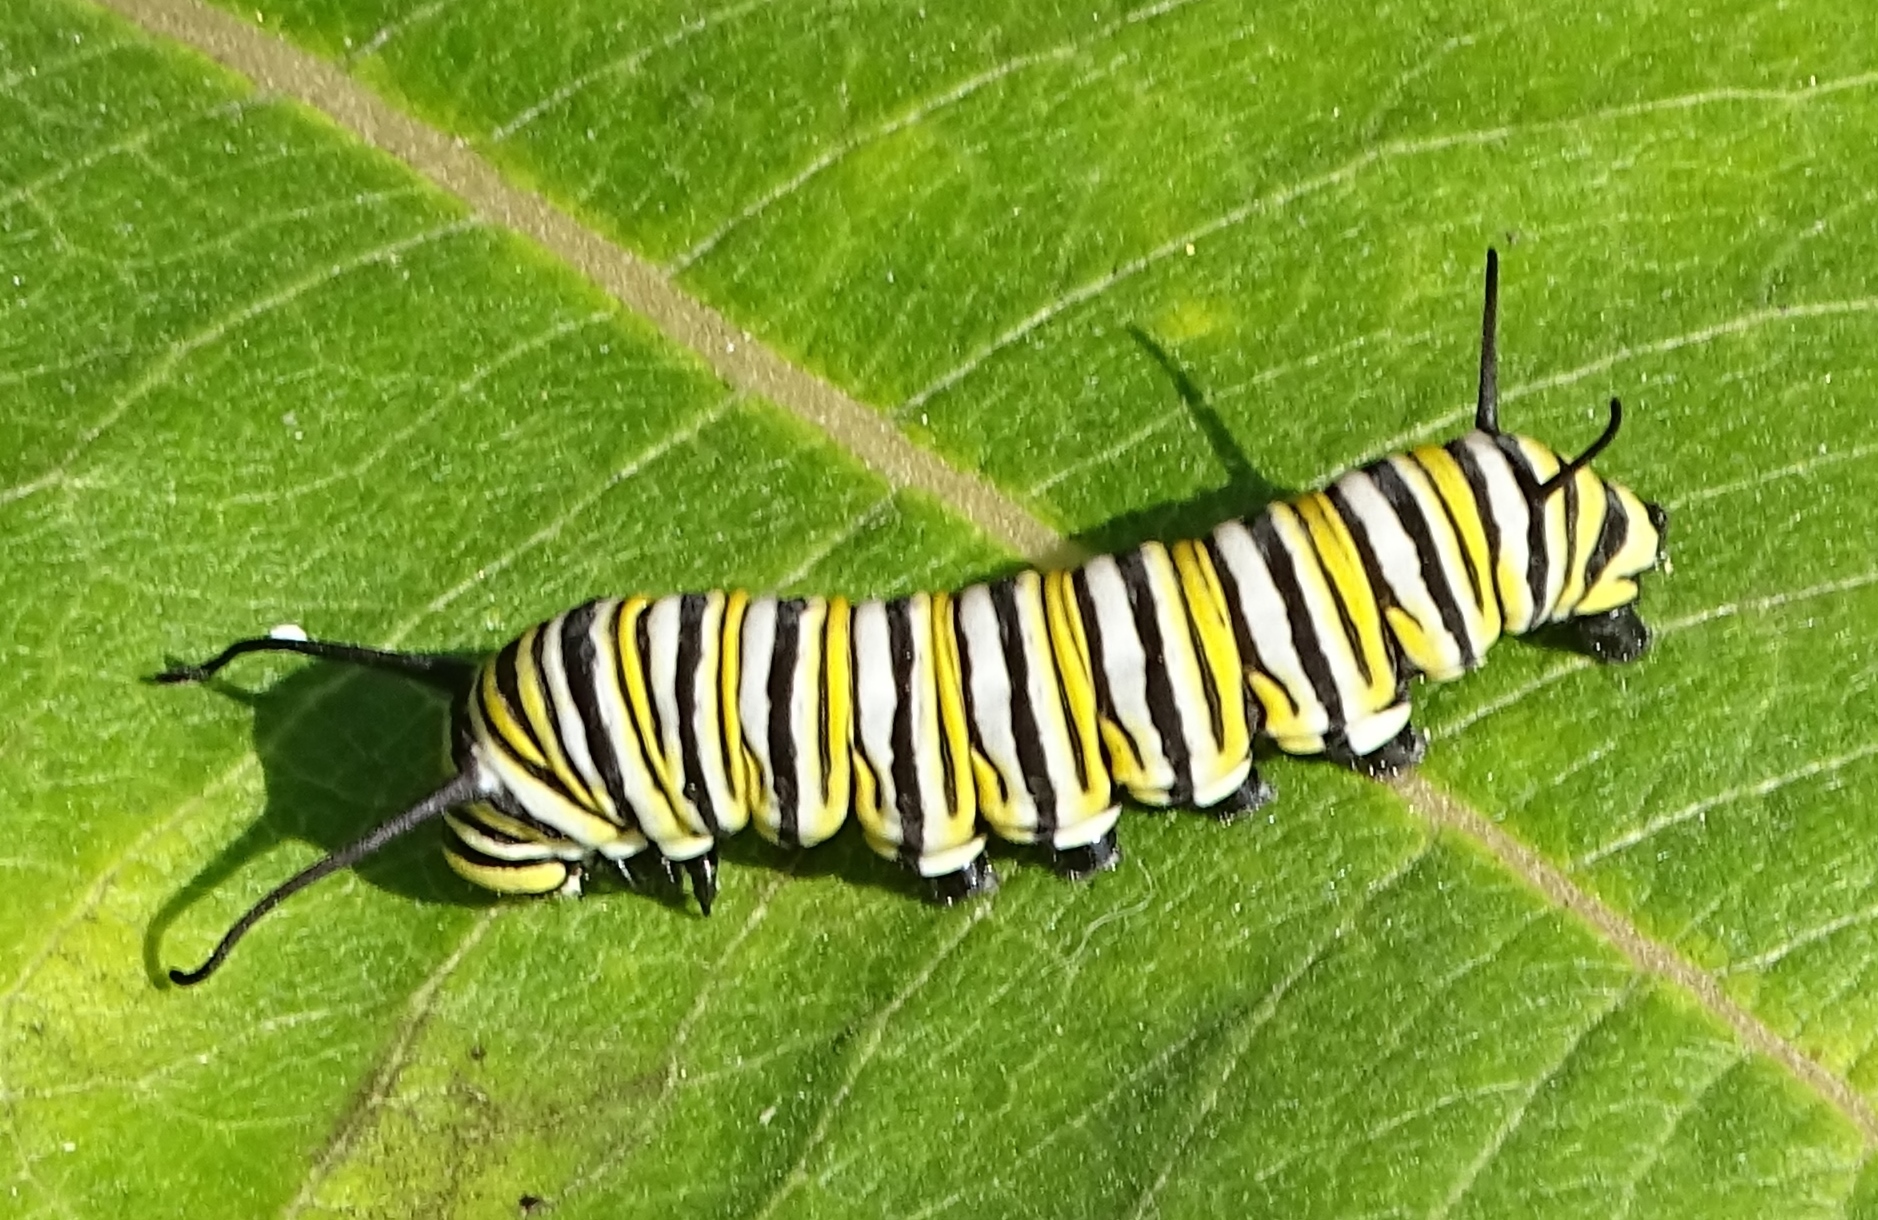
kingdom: Animalia
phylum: Arthropoda
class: Insecta
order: Lepidoptera
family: Nymphalidae
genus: Danaus
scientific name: Danaus plexippus
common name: Monarch
